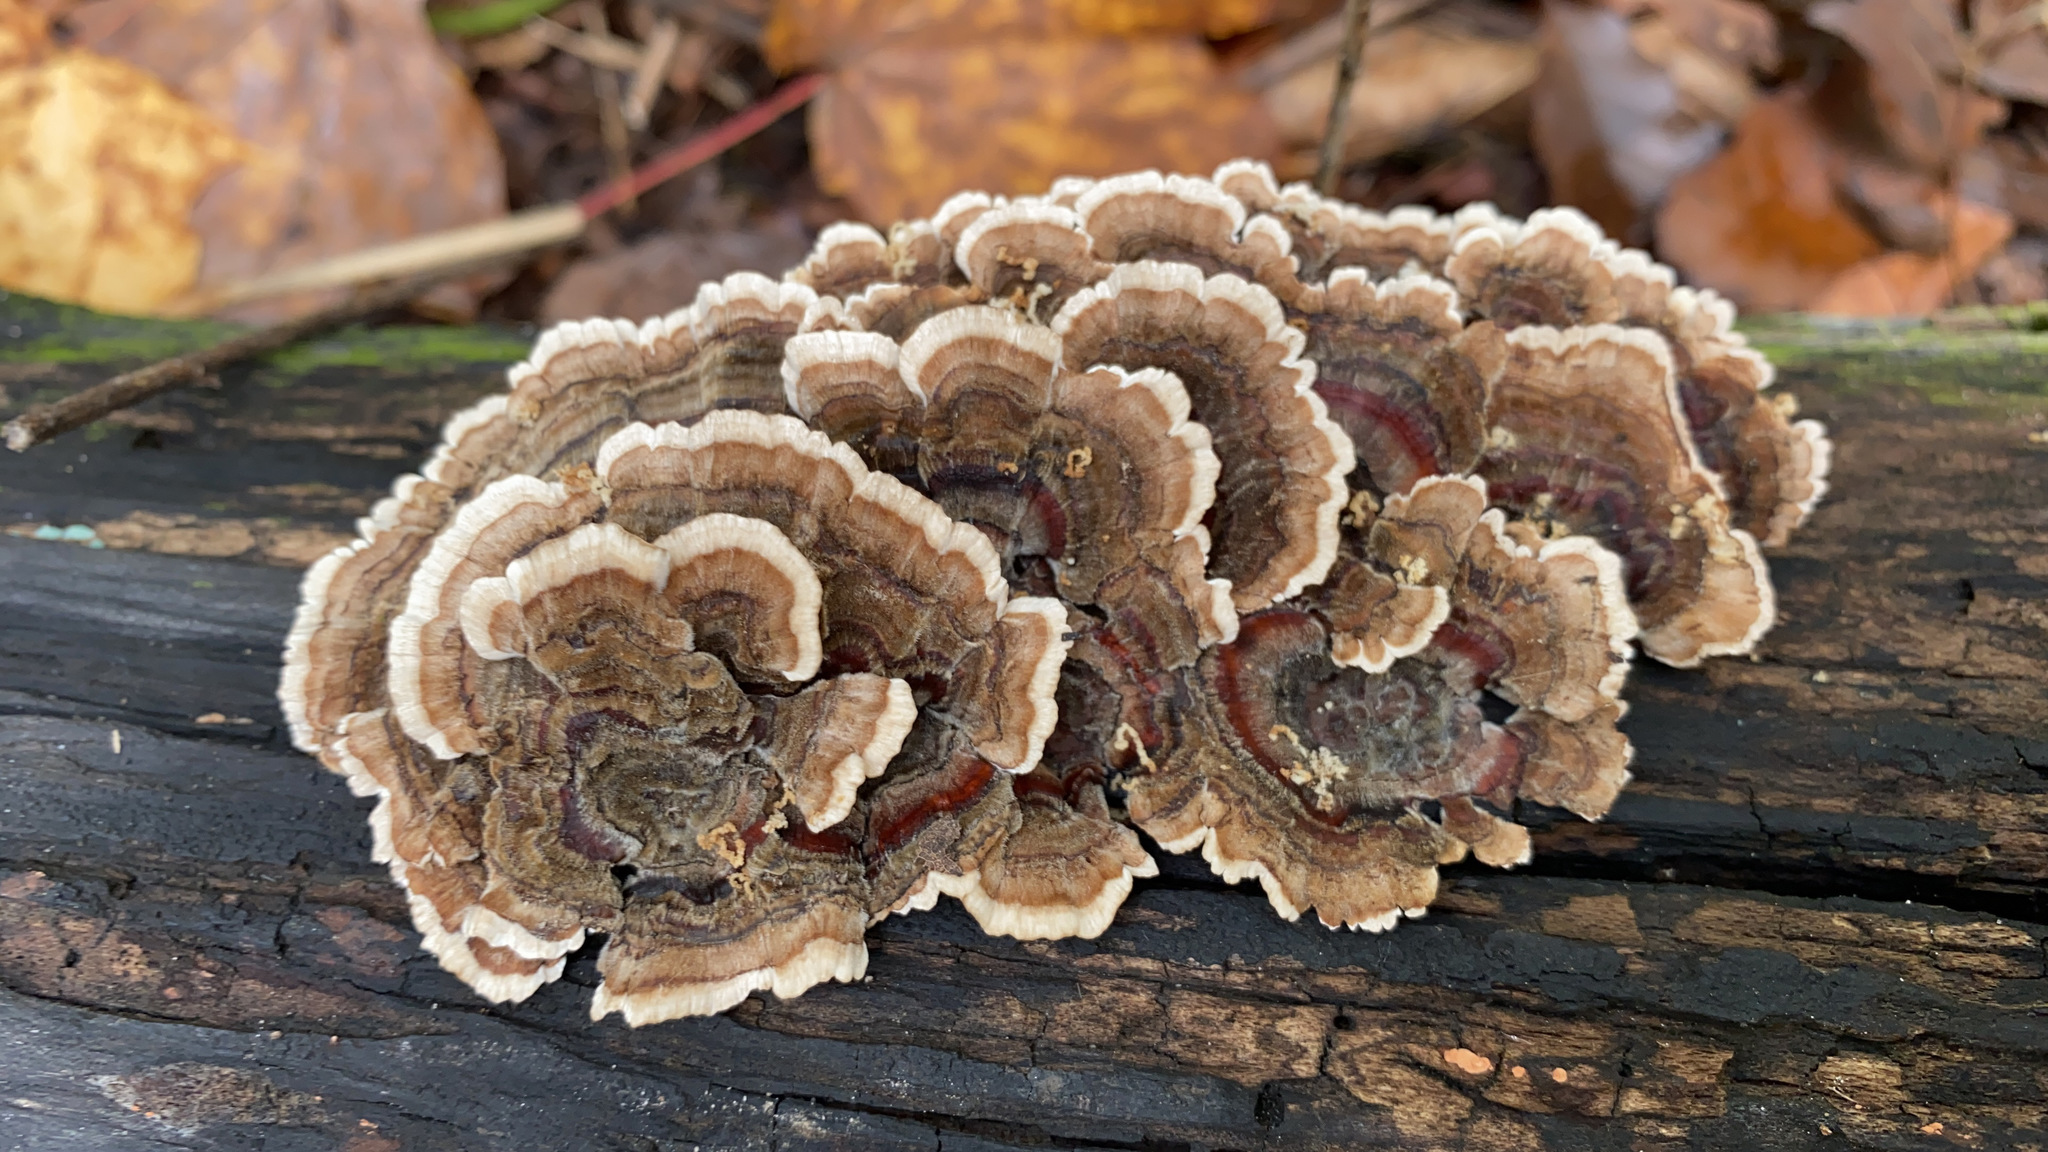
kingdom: Fungi
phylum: Basidiomycota
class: Agaricomycetes
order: Polyporales
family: Polyporaceae
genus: Trametes
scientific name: Trametes versicolor
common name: Turkeytail
